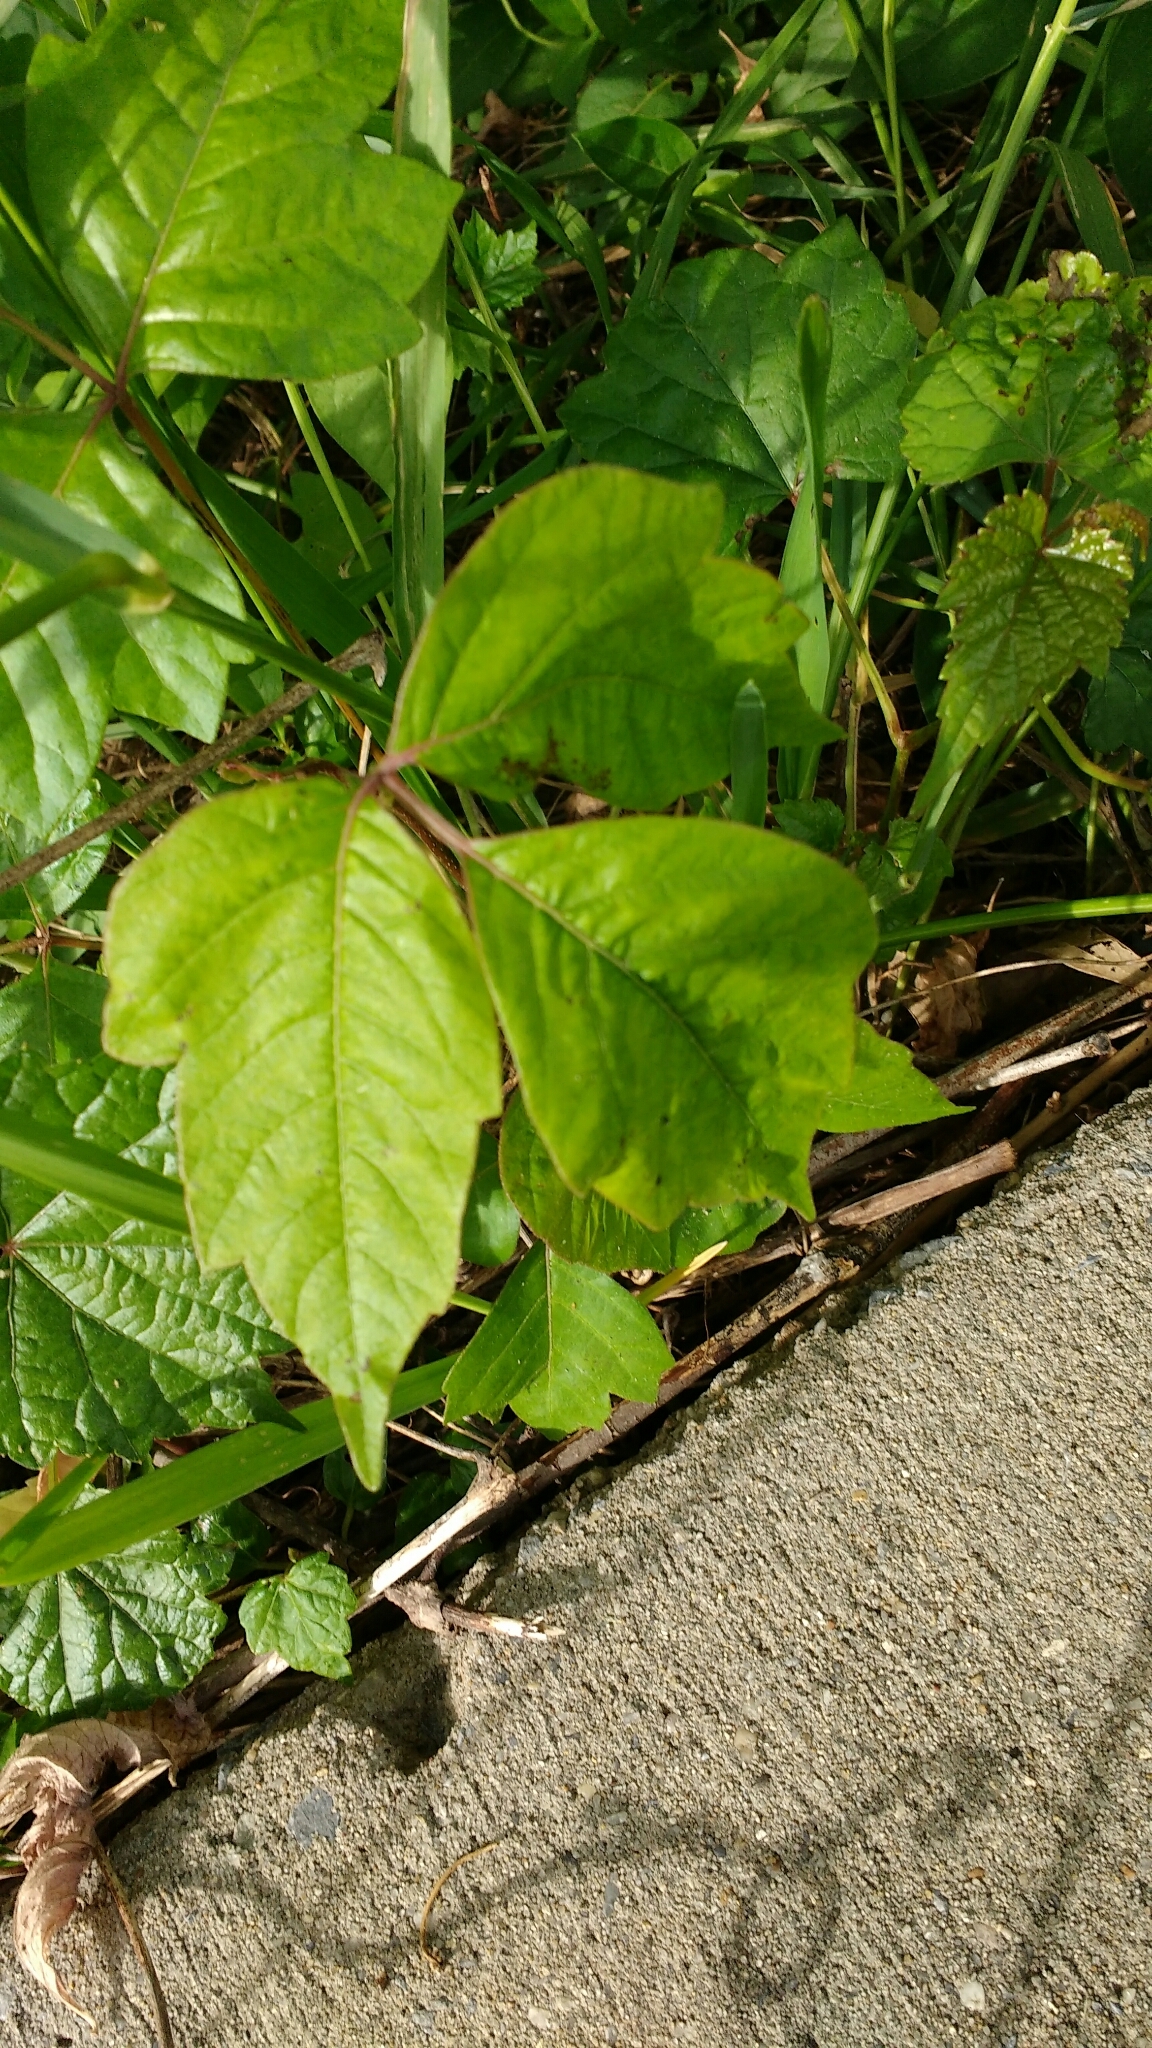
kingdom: Plantae
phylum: Tracheophyta
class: Magnoliopsida
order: Sapindales
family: Anacardiaceae
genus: Toxicodendron
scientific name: Toxicodendron radicans
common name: Poison ivy
